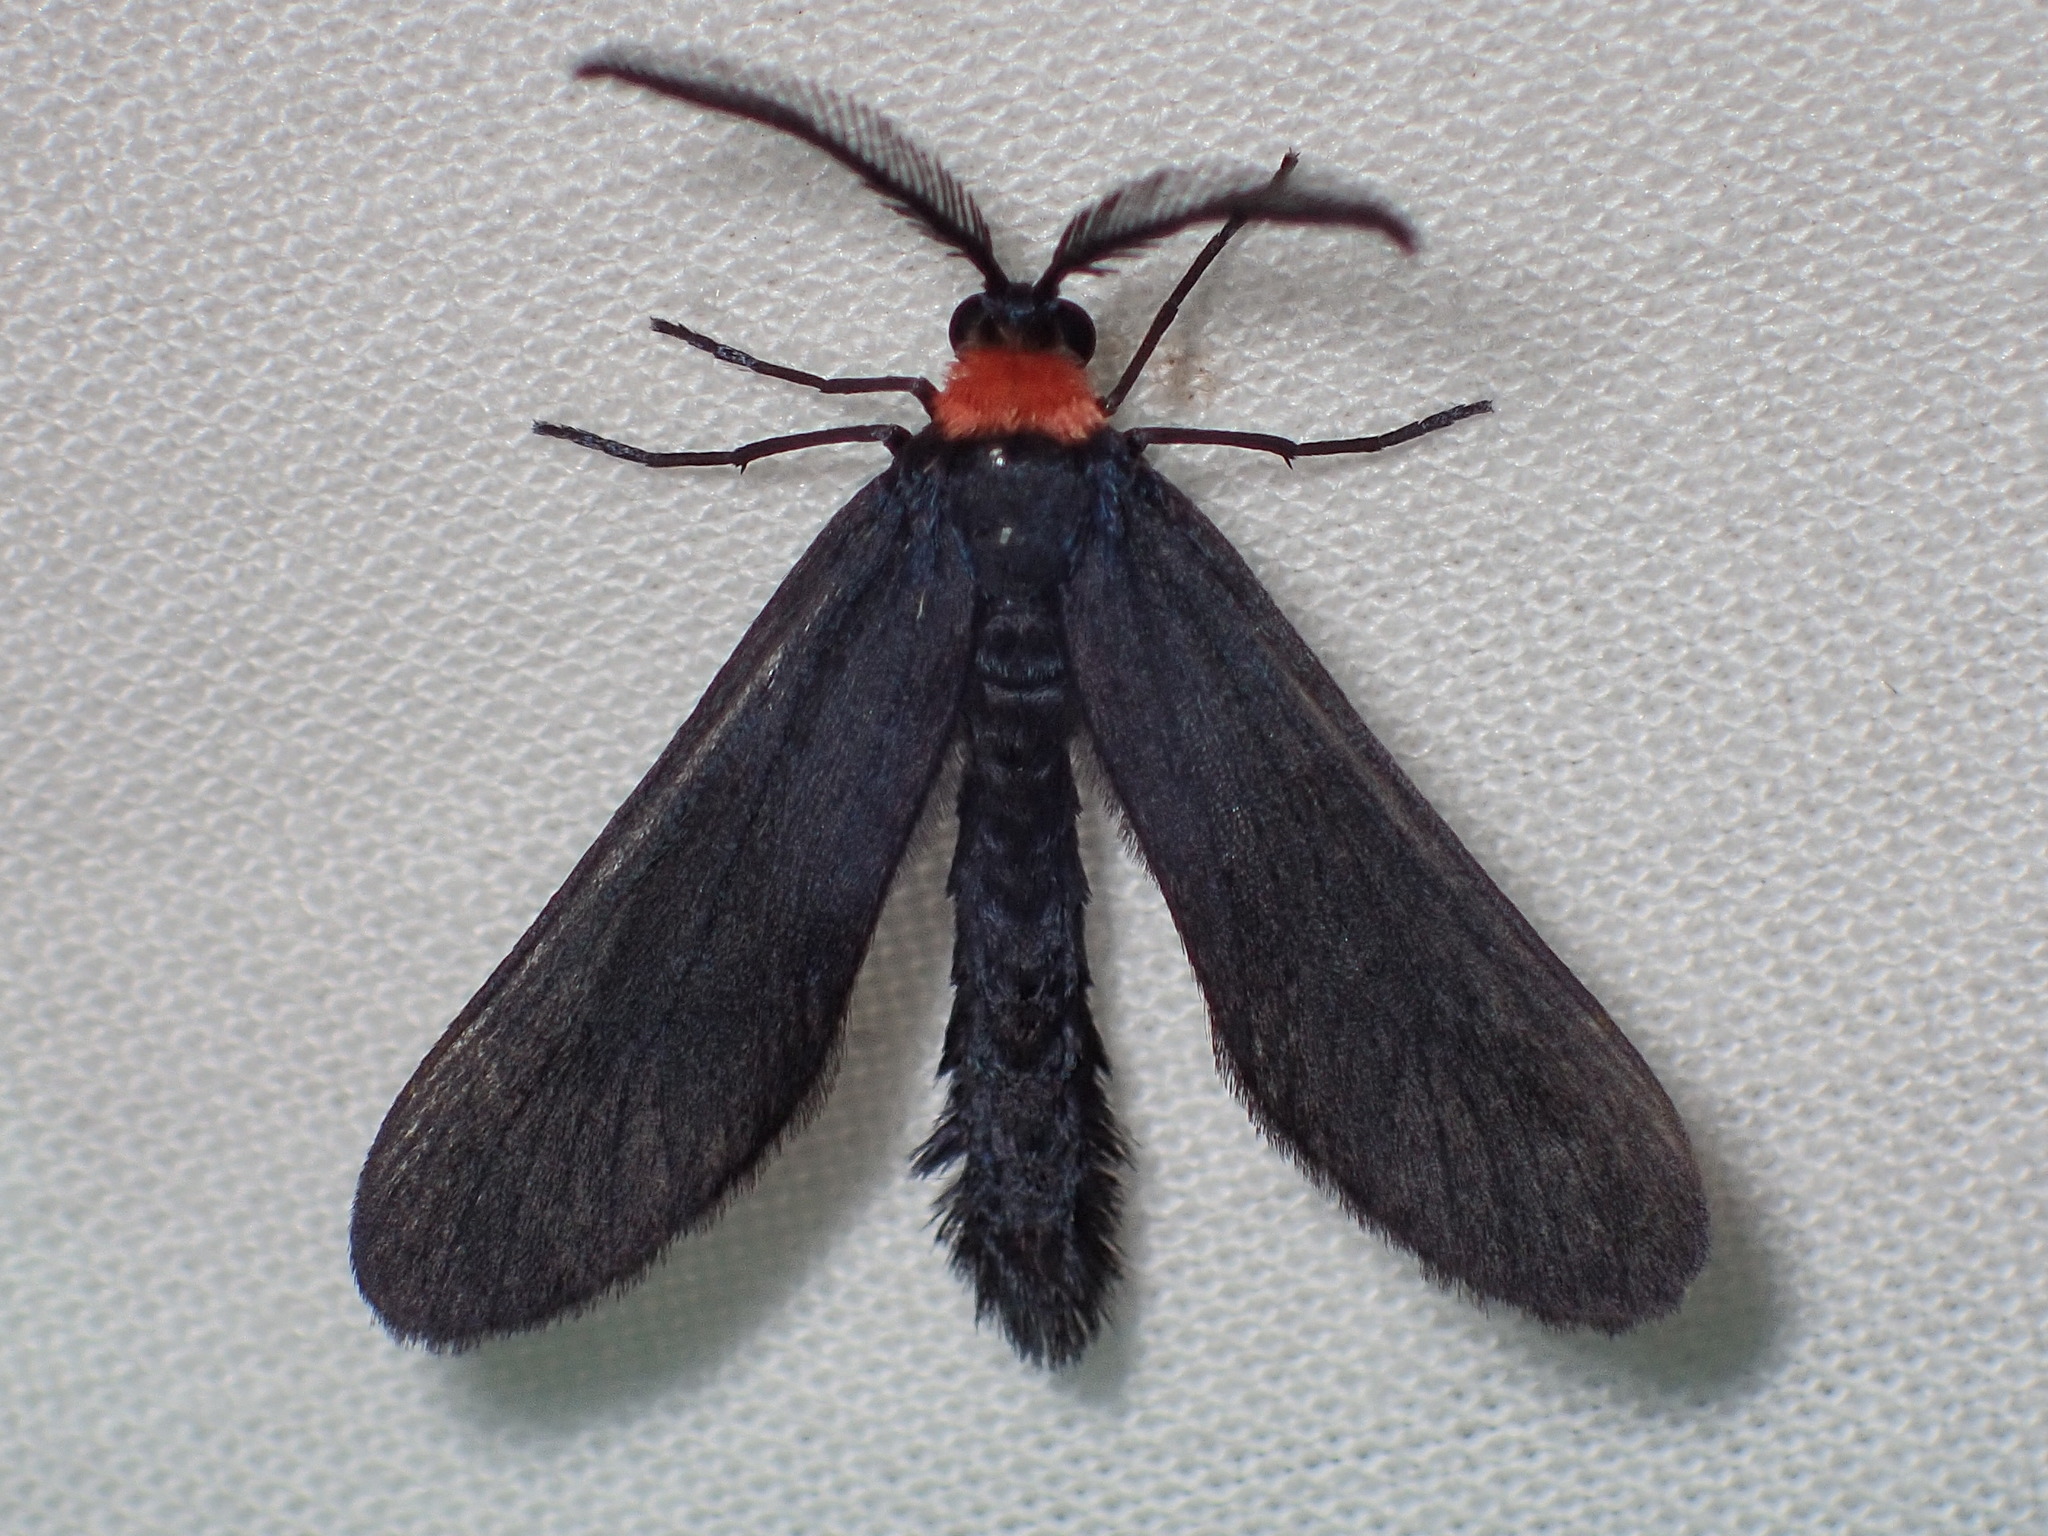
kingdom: Animalia
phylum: Arthropoda
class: Insecta
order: Lepidoptera
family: Zygaenidae
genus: Harrisina
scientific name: Harrisina americana
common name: Grapeleaf skeletonizer moth
